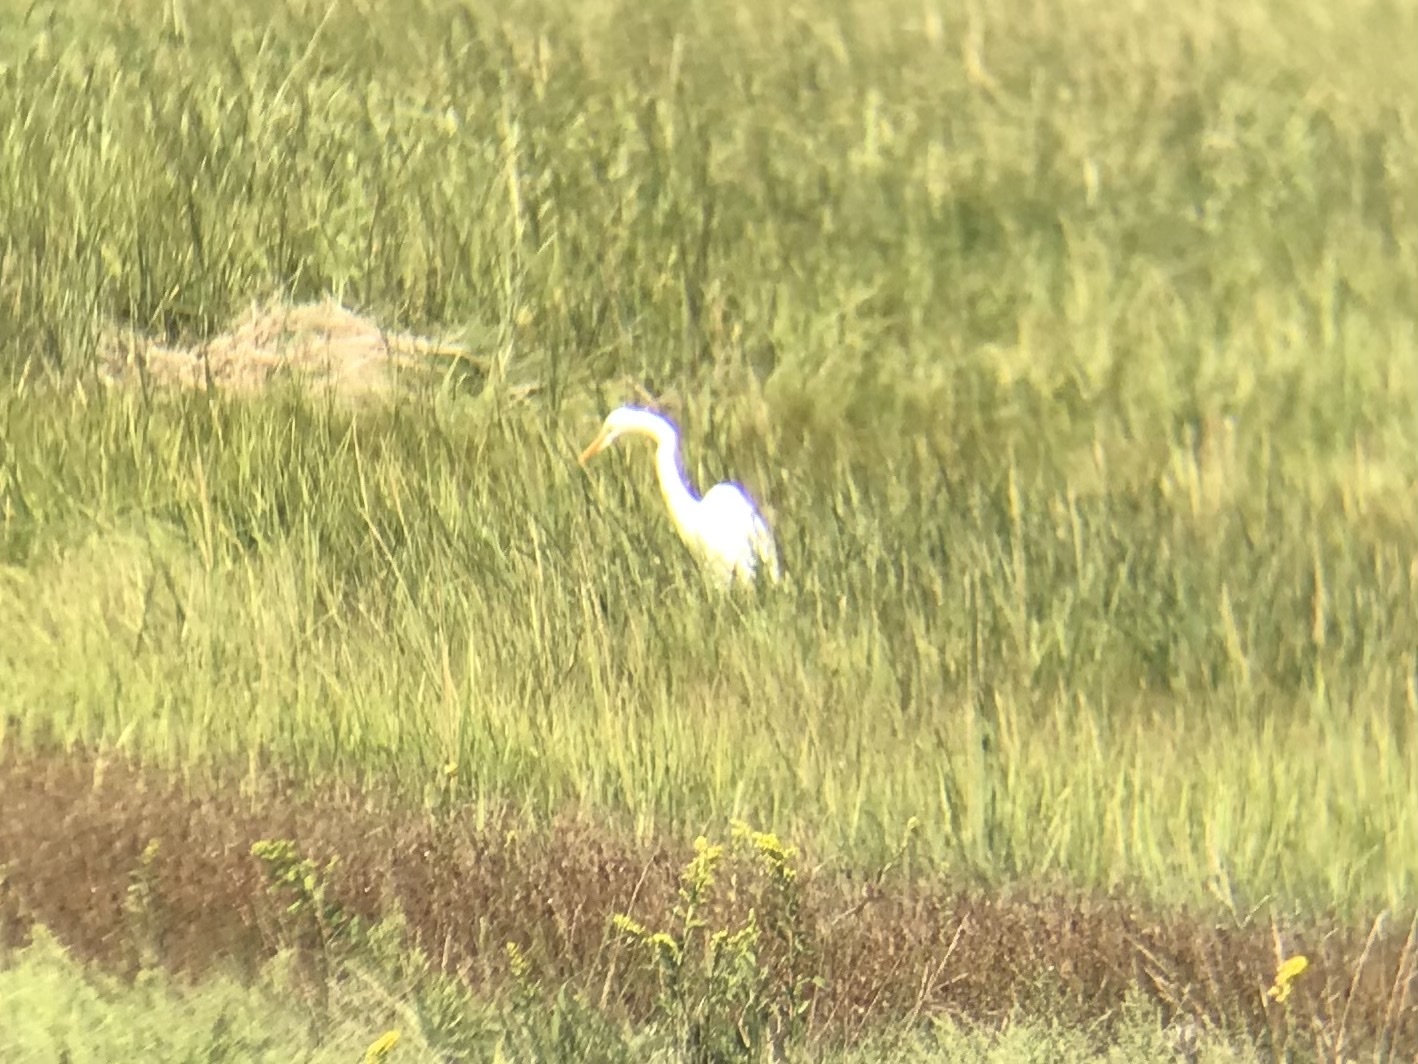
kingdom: Animalia
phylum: Chordata
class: Aves
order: Pelecaniformes
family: Ardeidae
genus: Ardea
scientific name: Ardea alba
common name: Great egret
